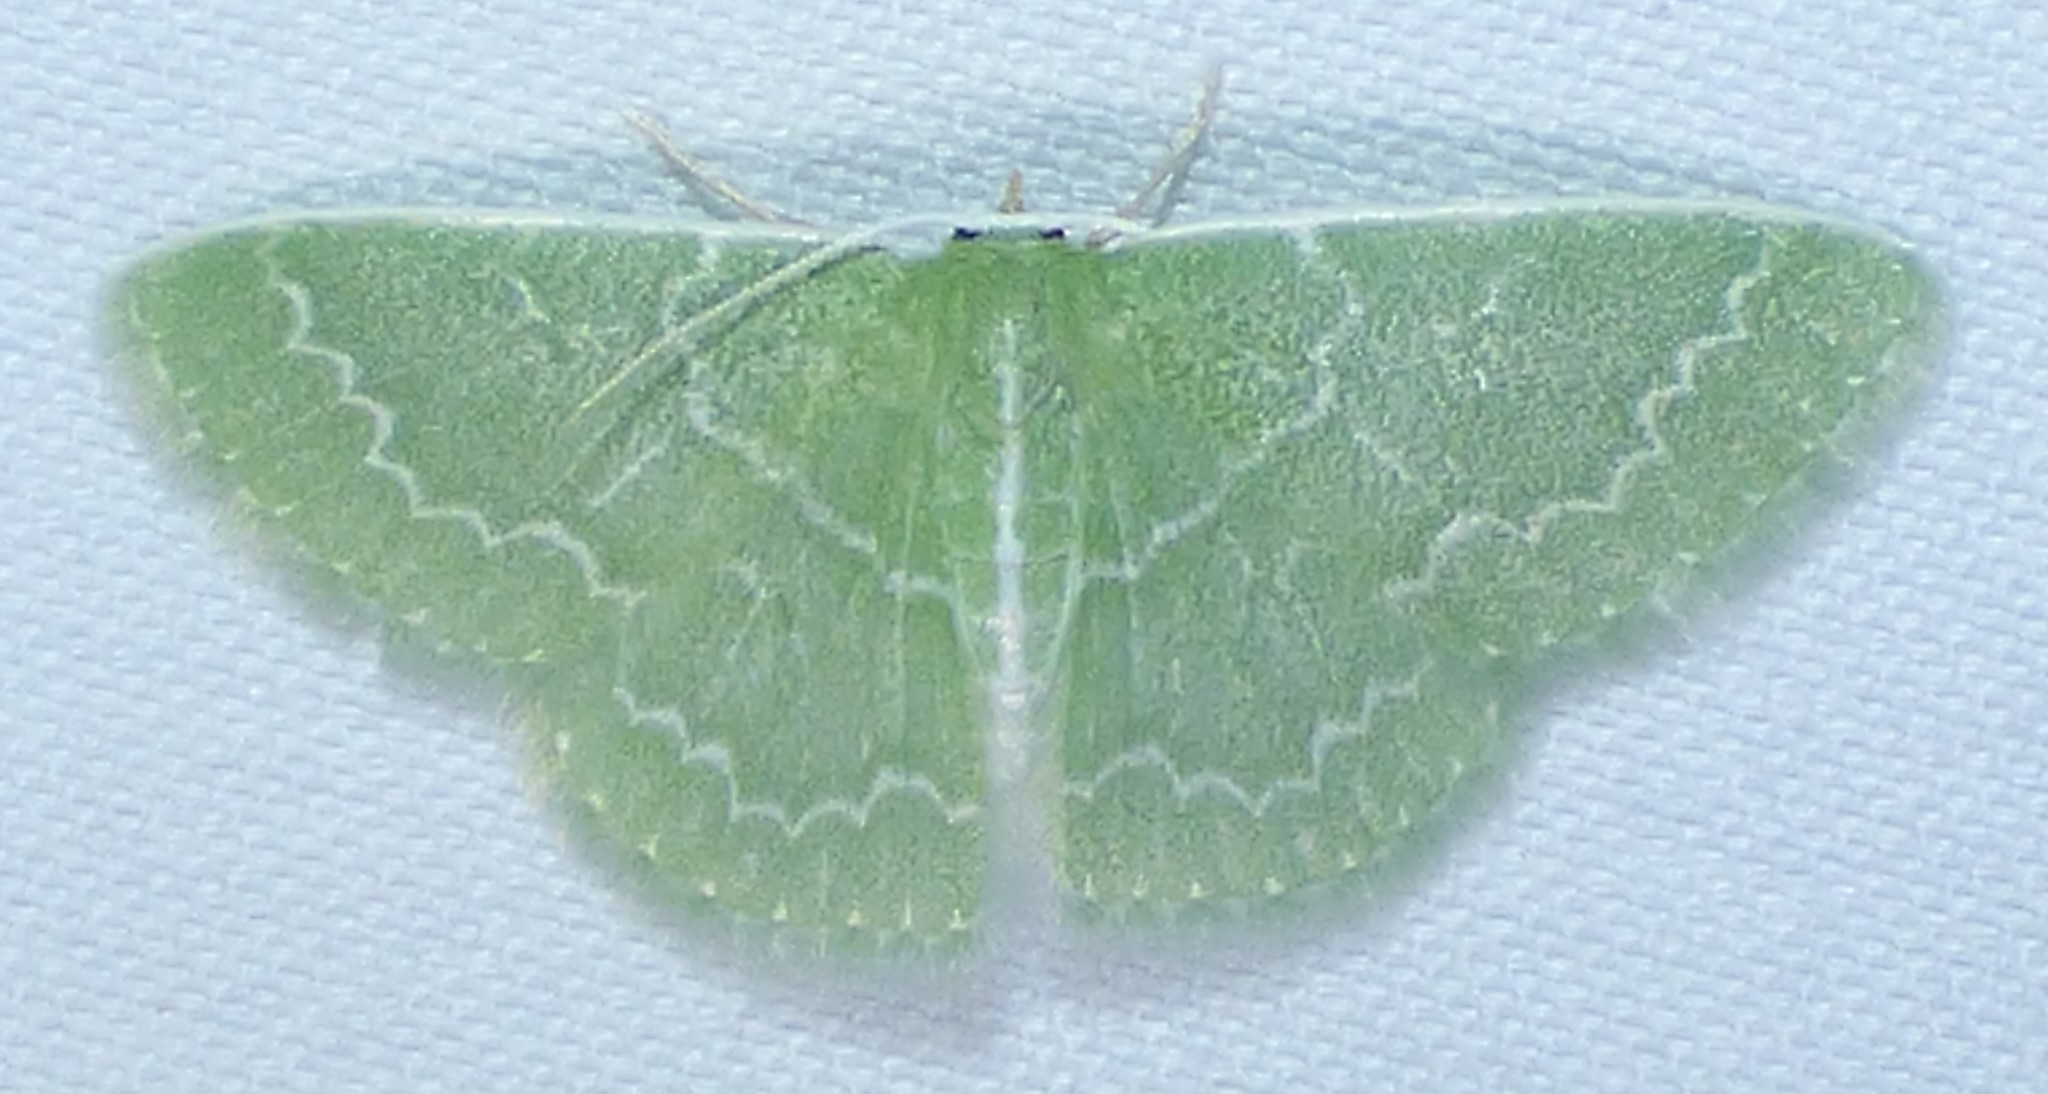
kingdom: Animalia
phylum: Arthropoda
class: Insecta
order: Lepidoptera
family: Geometridae
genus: Synchlora
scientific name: Synchlora frondaria
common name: Southern emerald
